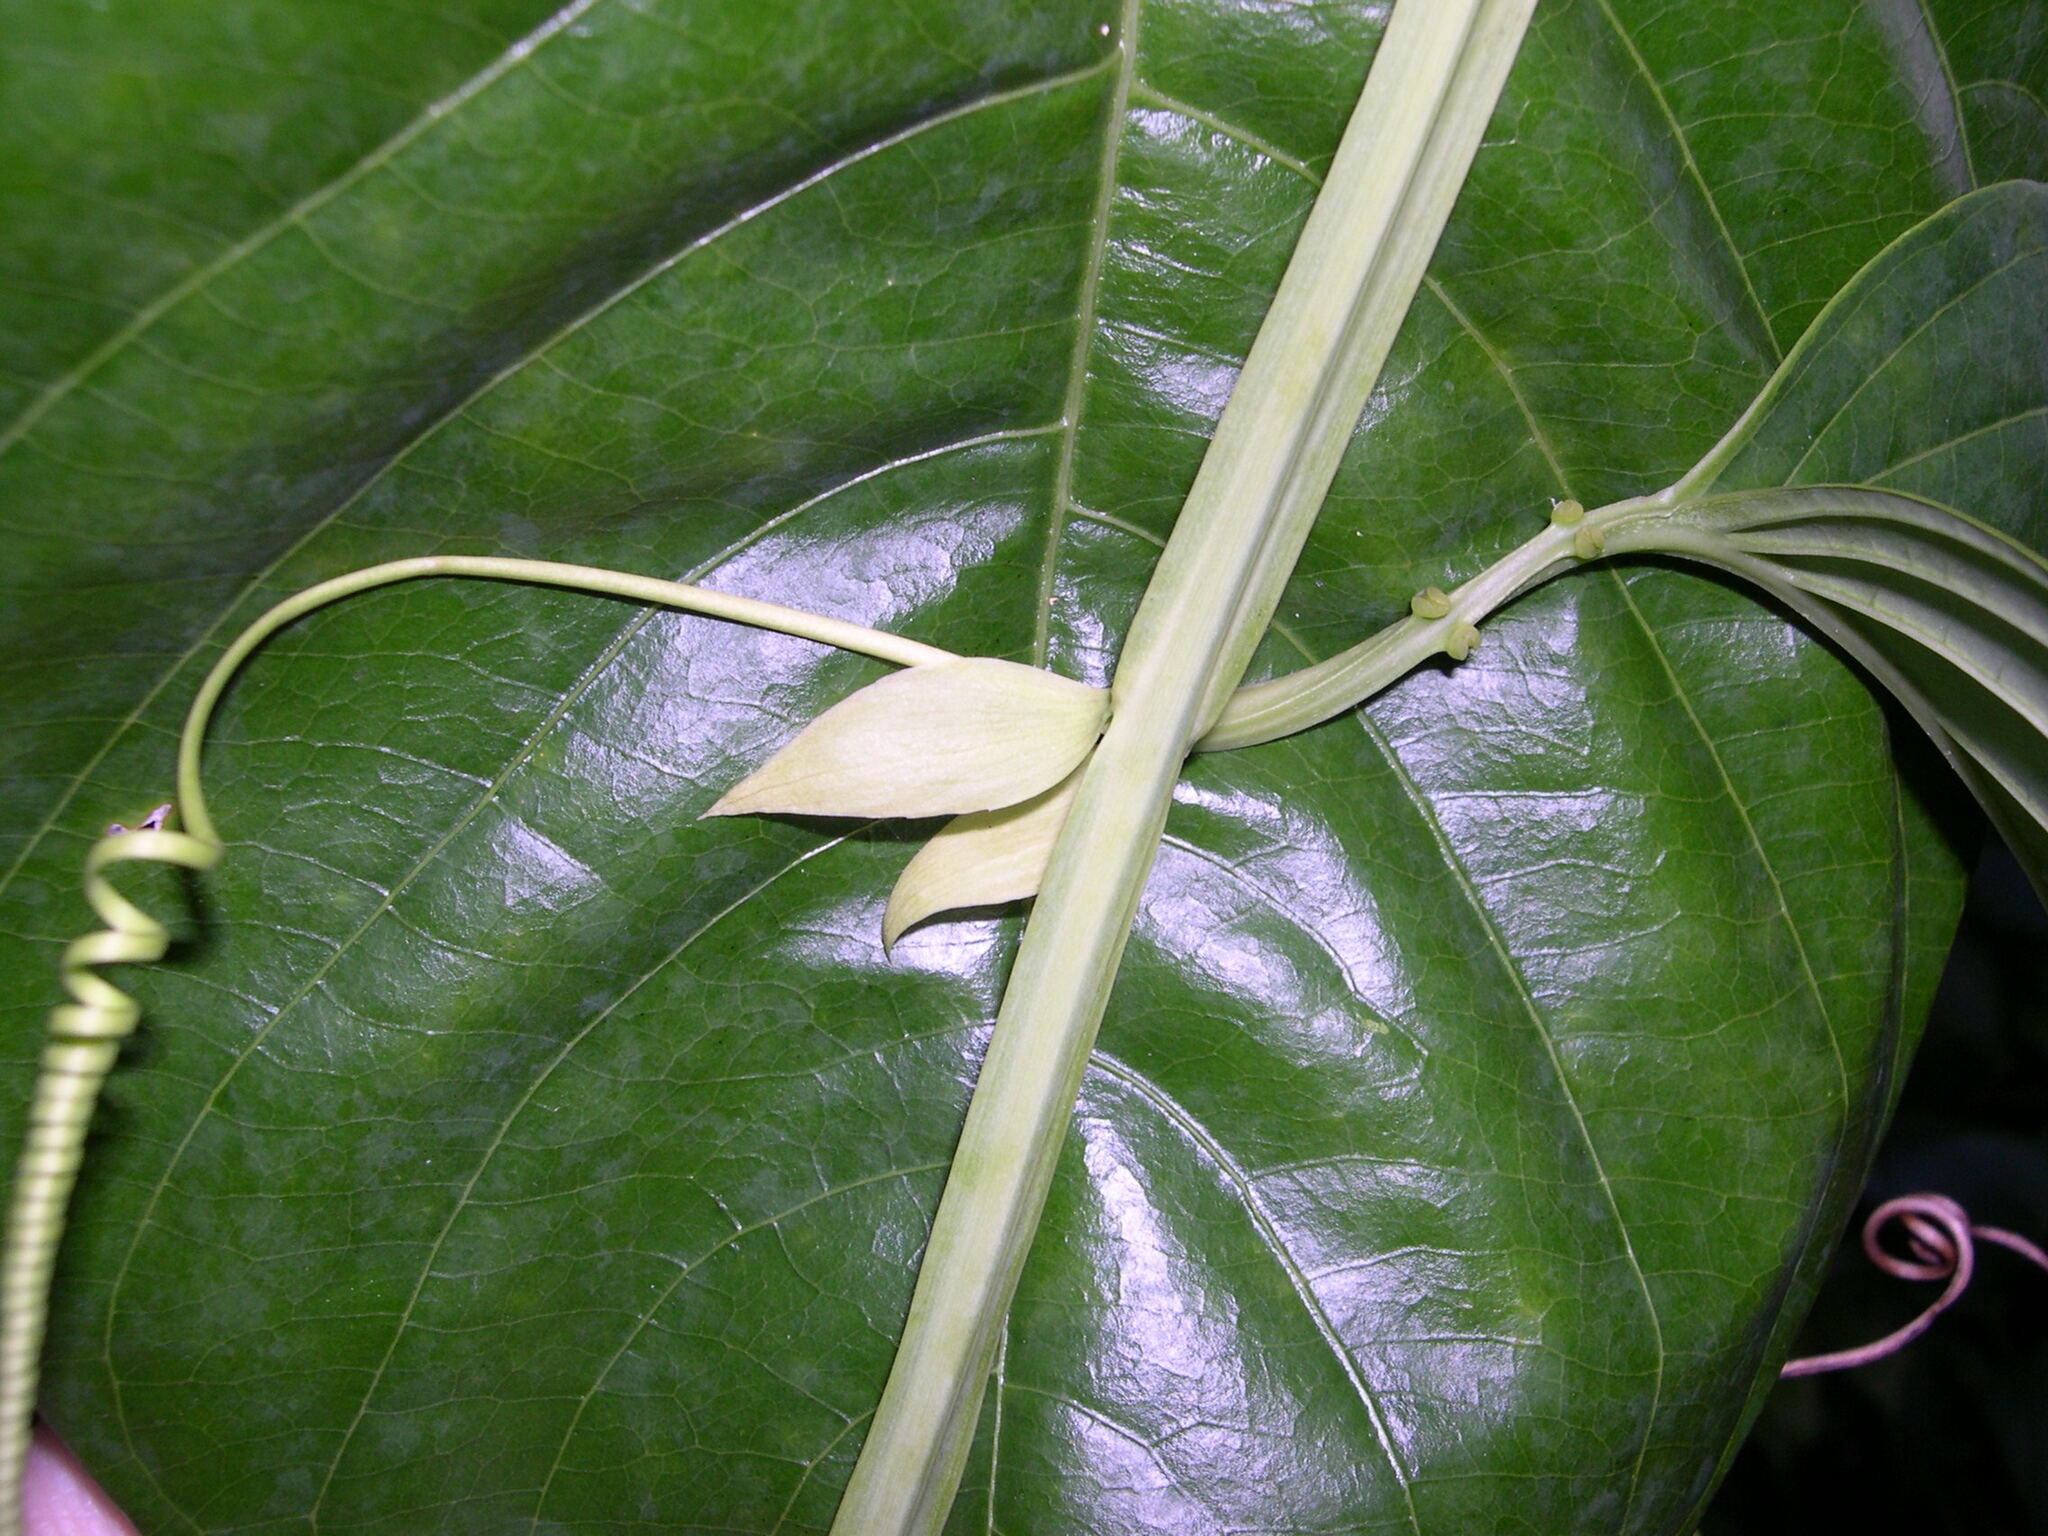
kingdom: Plantae
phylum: Tracheophyta
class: Magnoliopsida
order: Malpighiales
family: Passifloraceae
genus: Passiflora
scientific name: Passiflora quadrangularis
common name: Giant granadilla
